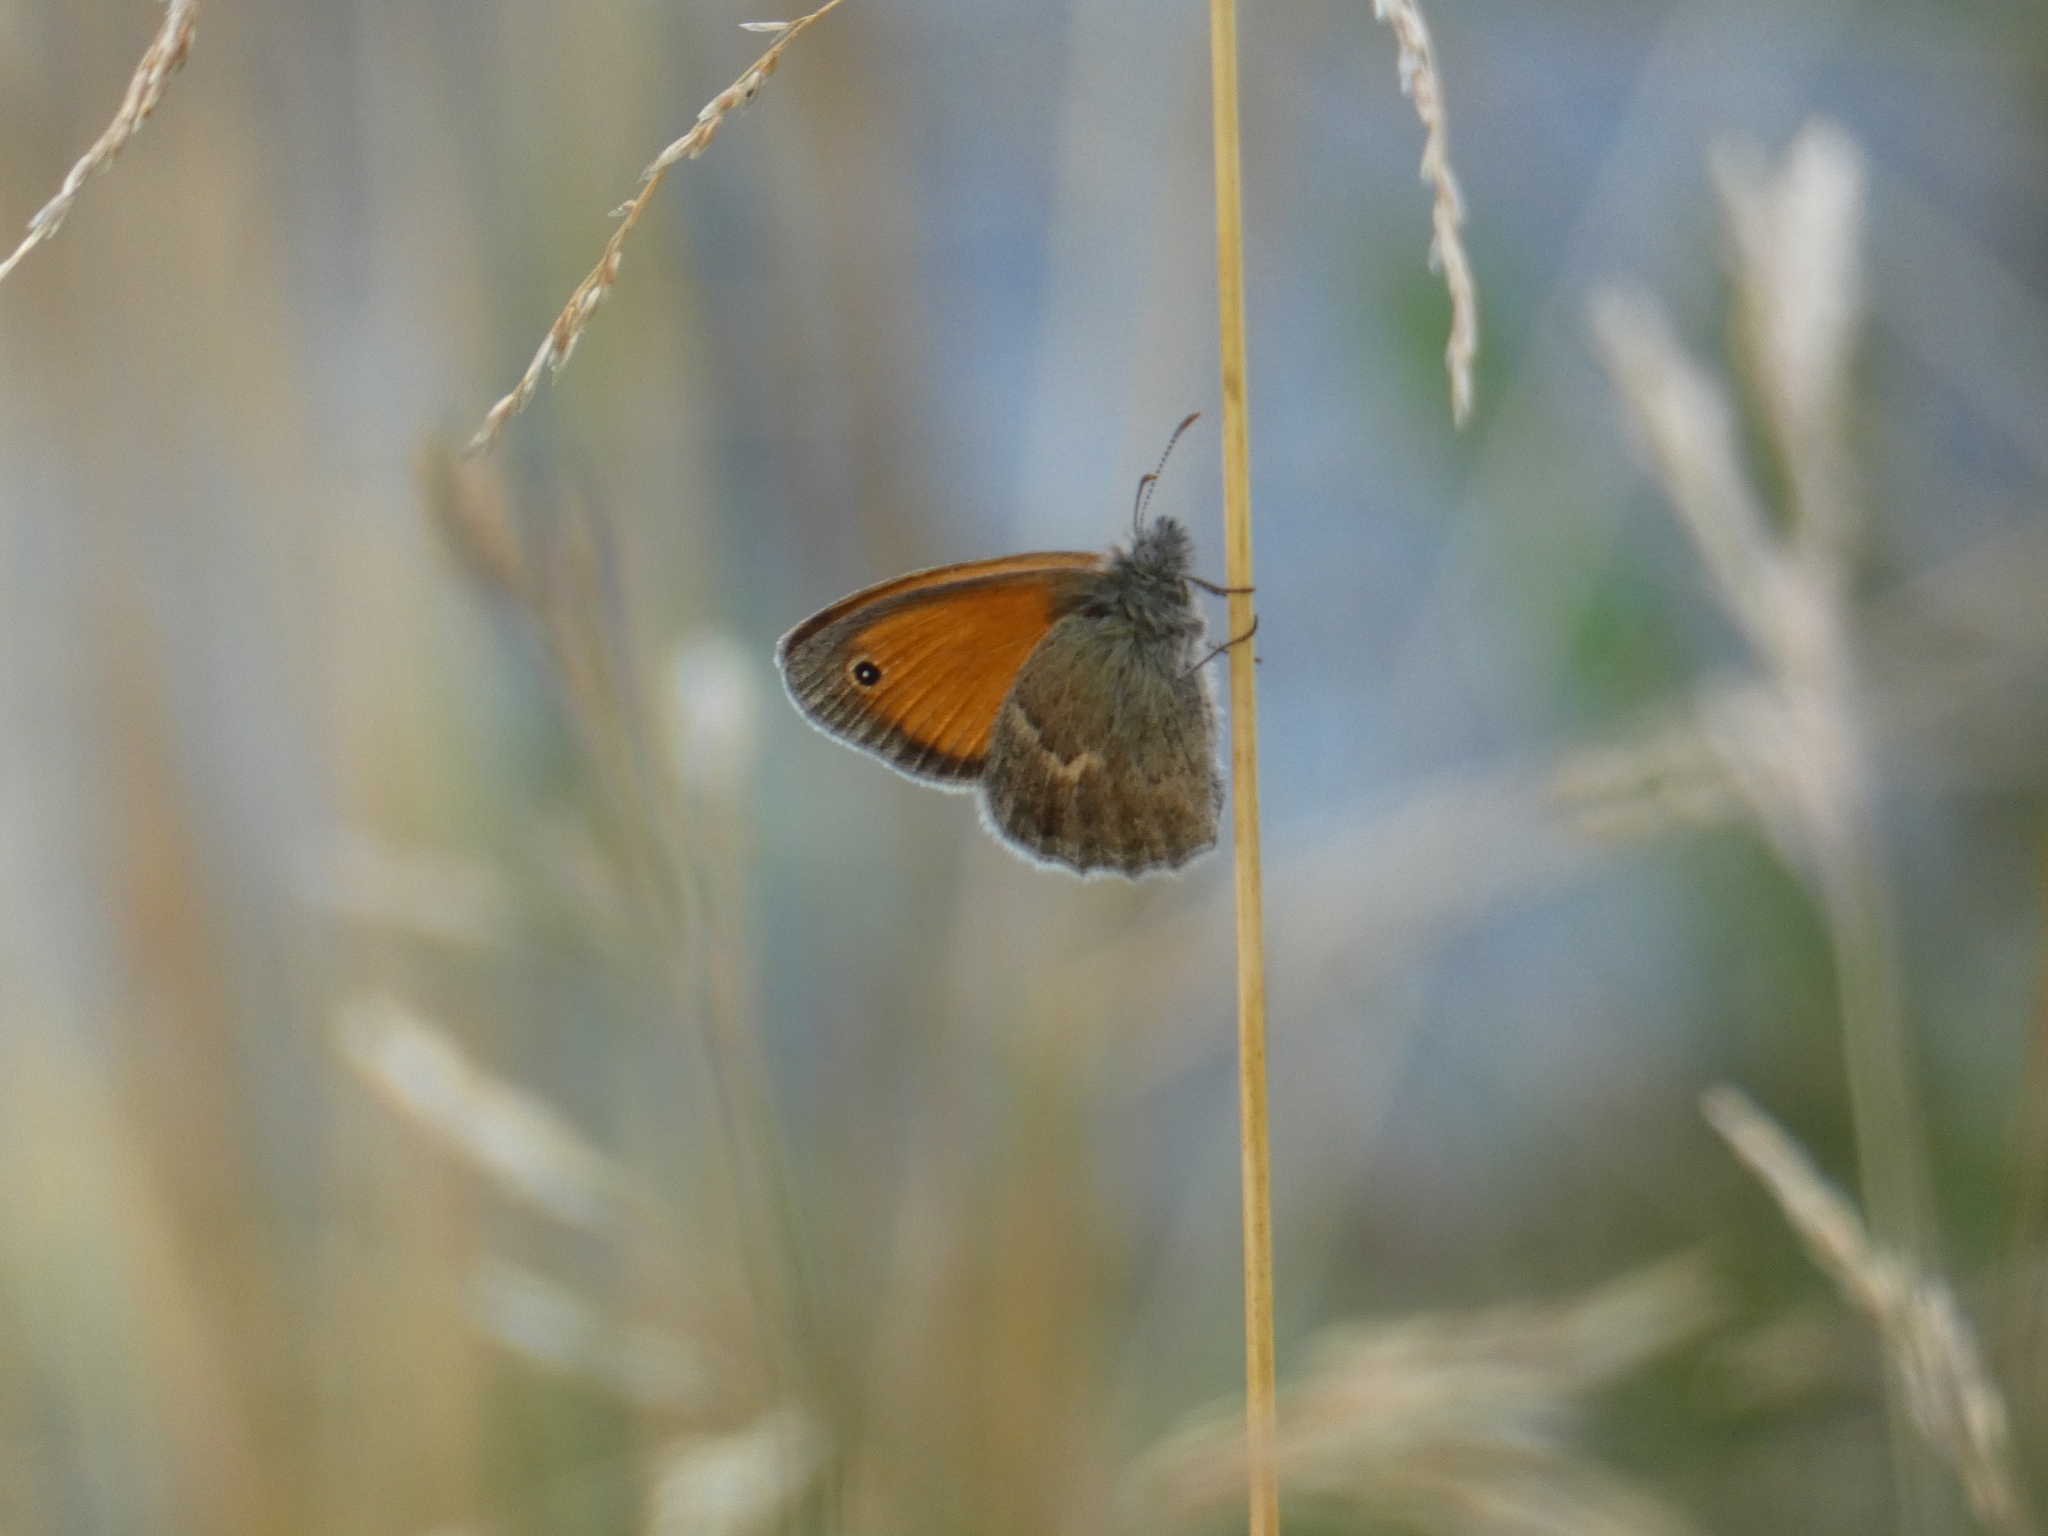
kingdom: Animalia
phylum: Arthropoda
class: Insecta
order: Lepidoptera
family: Nymphalidae
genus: Coenonympha
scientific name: Coenonympha pamphilus
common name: Small heath
